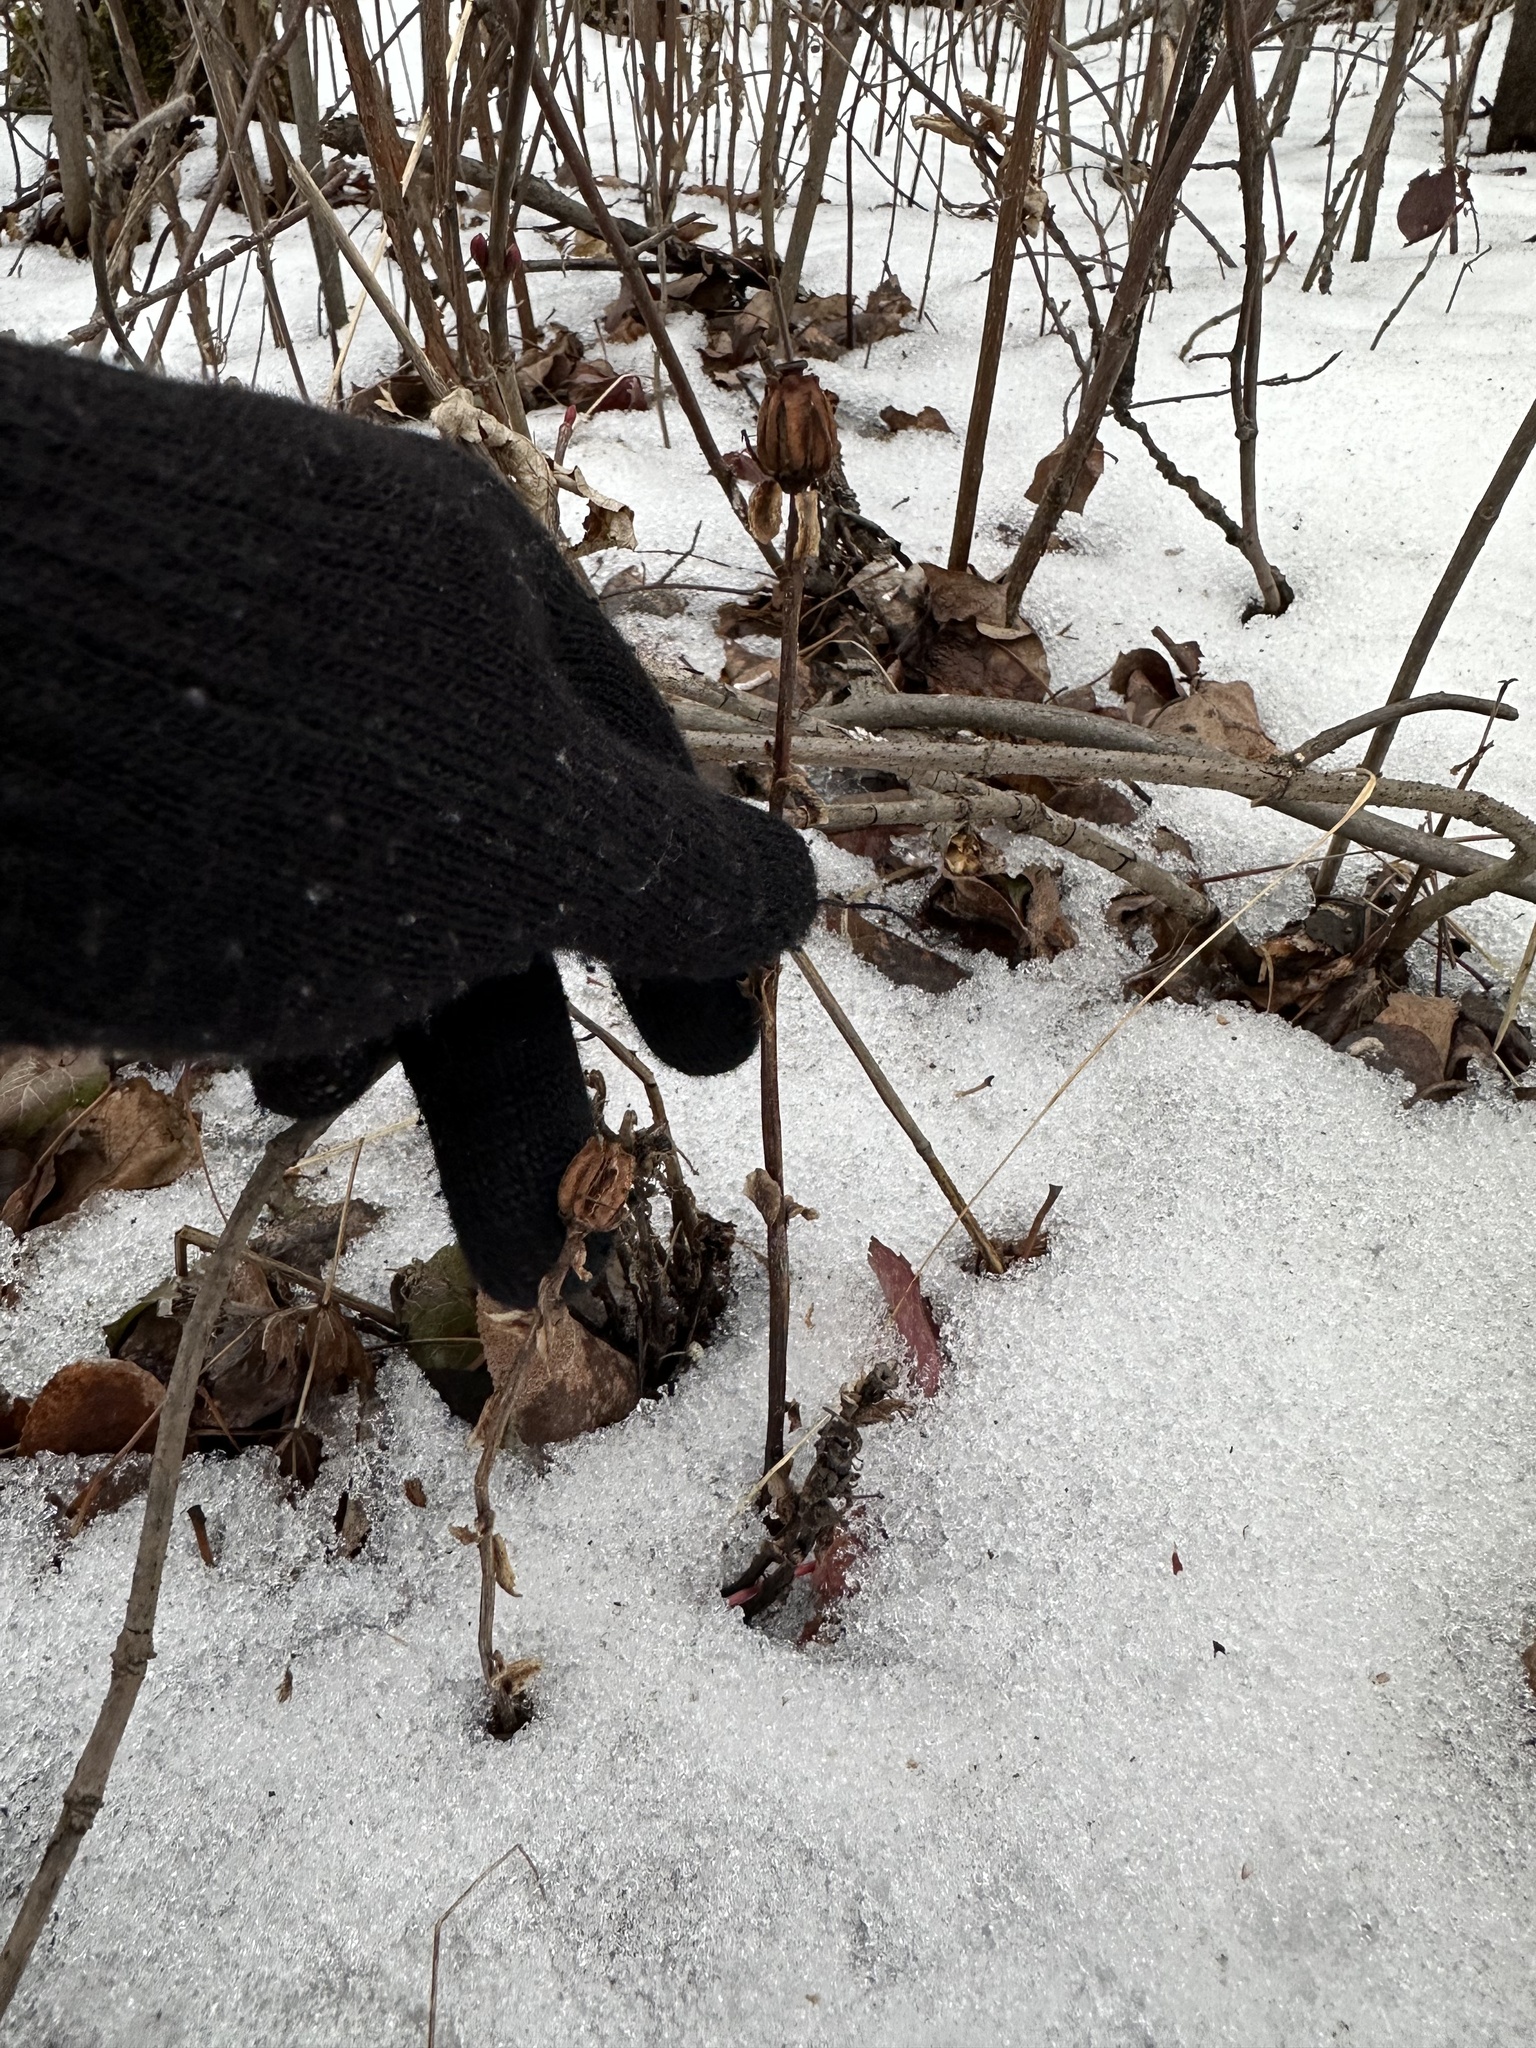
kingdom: Plantae
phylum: Tracheophyta
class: Magnoliopsida
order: Ericales
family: Ericaceae
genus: Monotropa
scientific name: Monotropa uniflora
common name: Convulsion root
